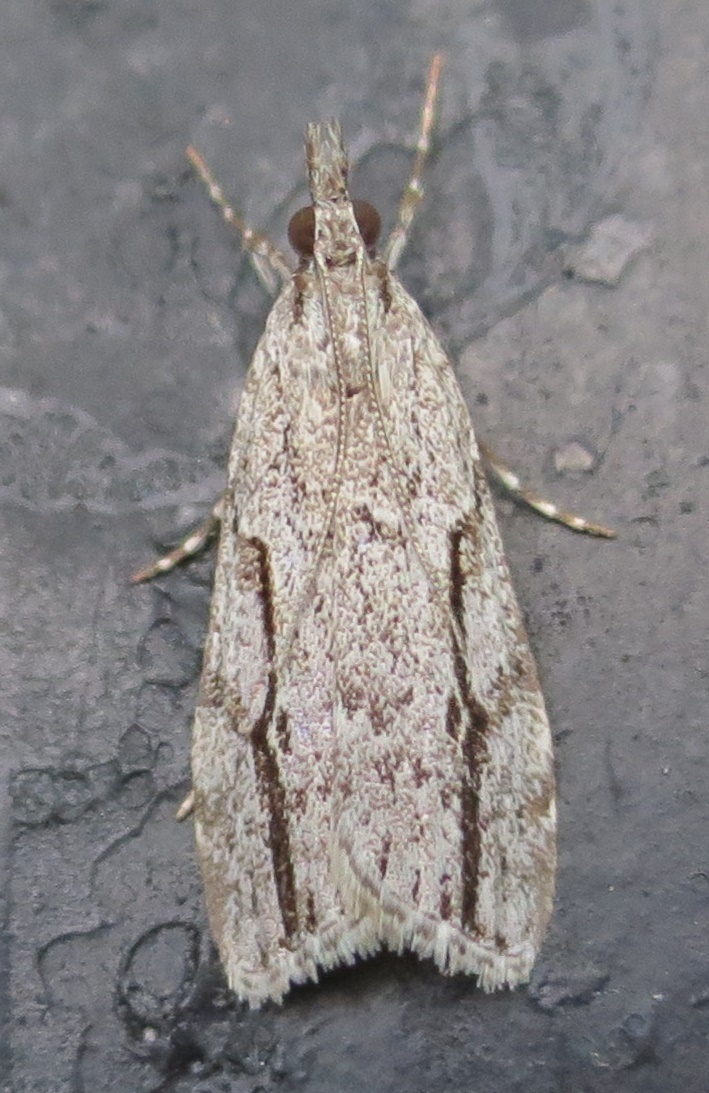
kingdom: Animalia
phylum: Arthropoda
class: Insecta
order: Lepidoptera
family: Crambidae
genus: Eudonia
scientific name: Eudonia bisinualis
